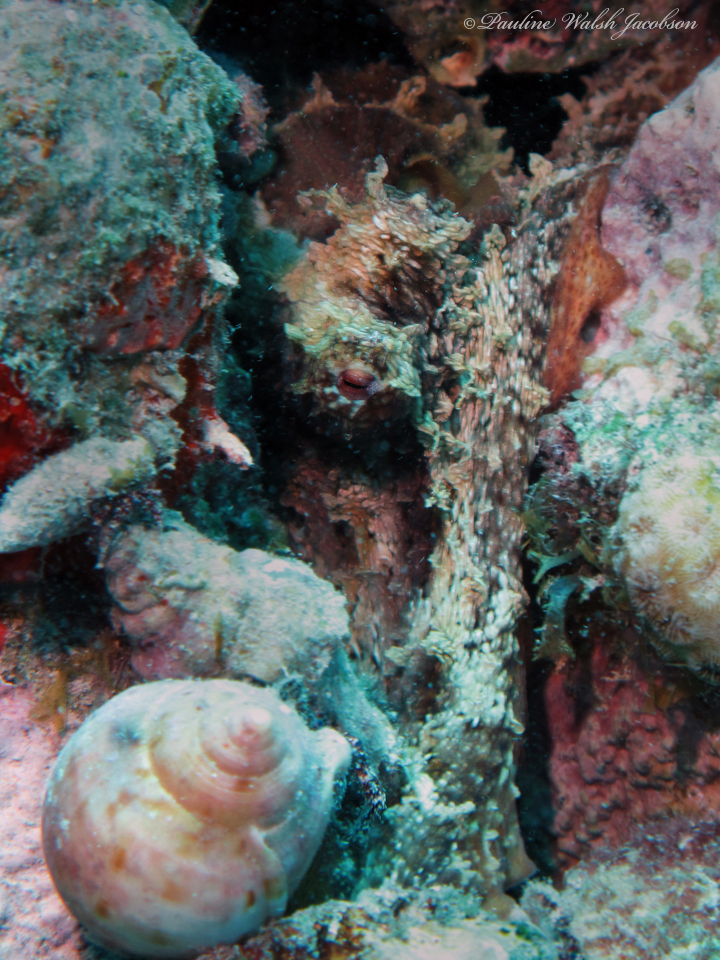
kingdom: Animalia
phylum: Mollusca
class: Cephalopoda
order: Octopoda
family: Octopodidae
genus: Octopus
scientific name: Octopus insularis
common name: Brazil reef octopus
